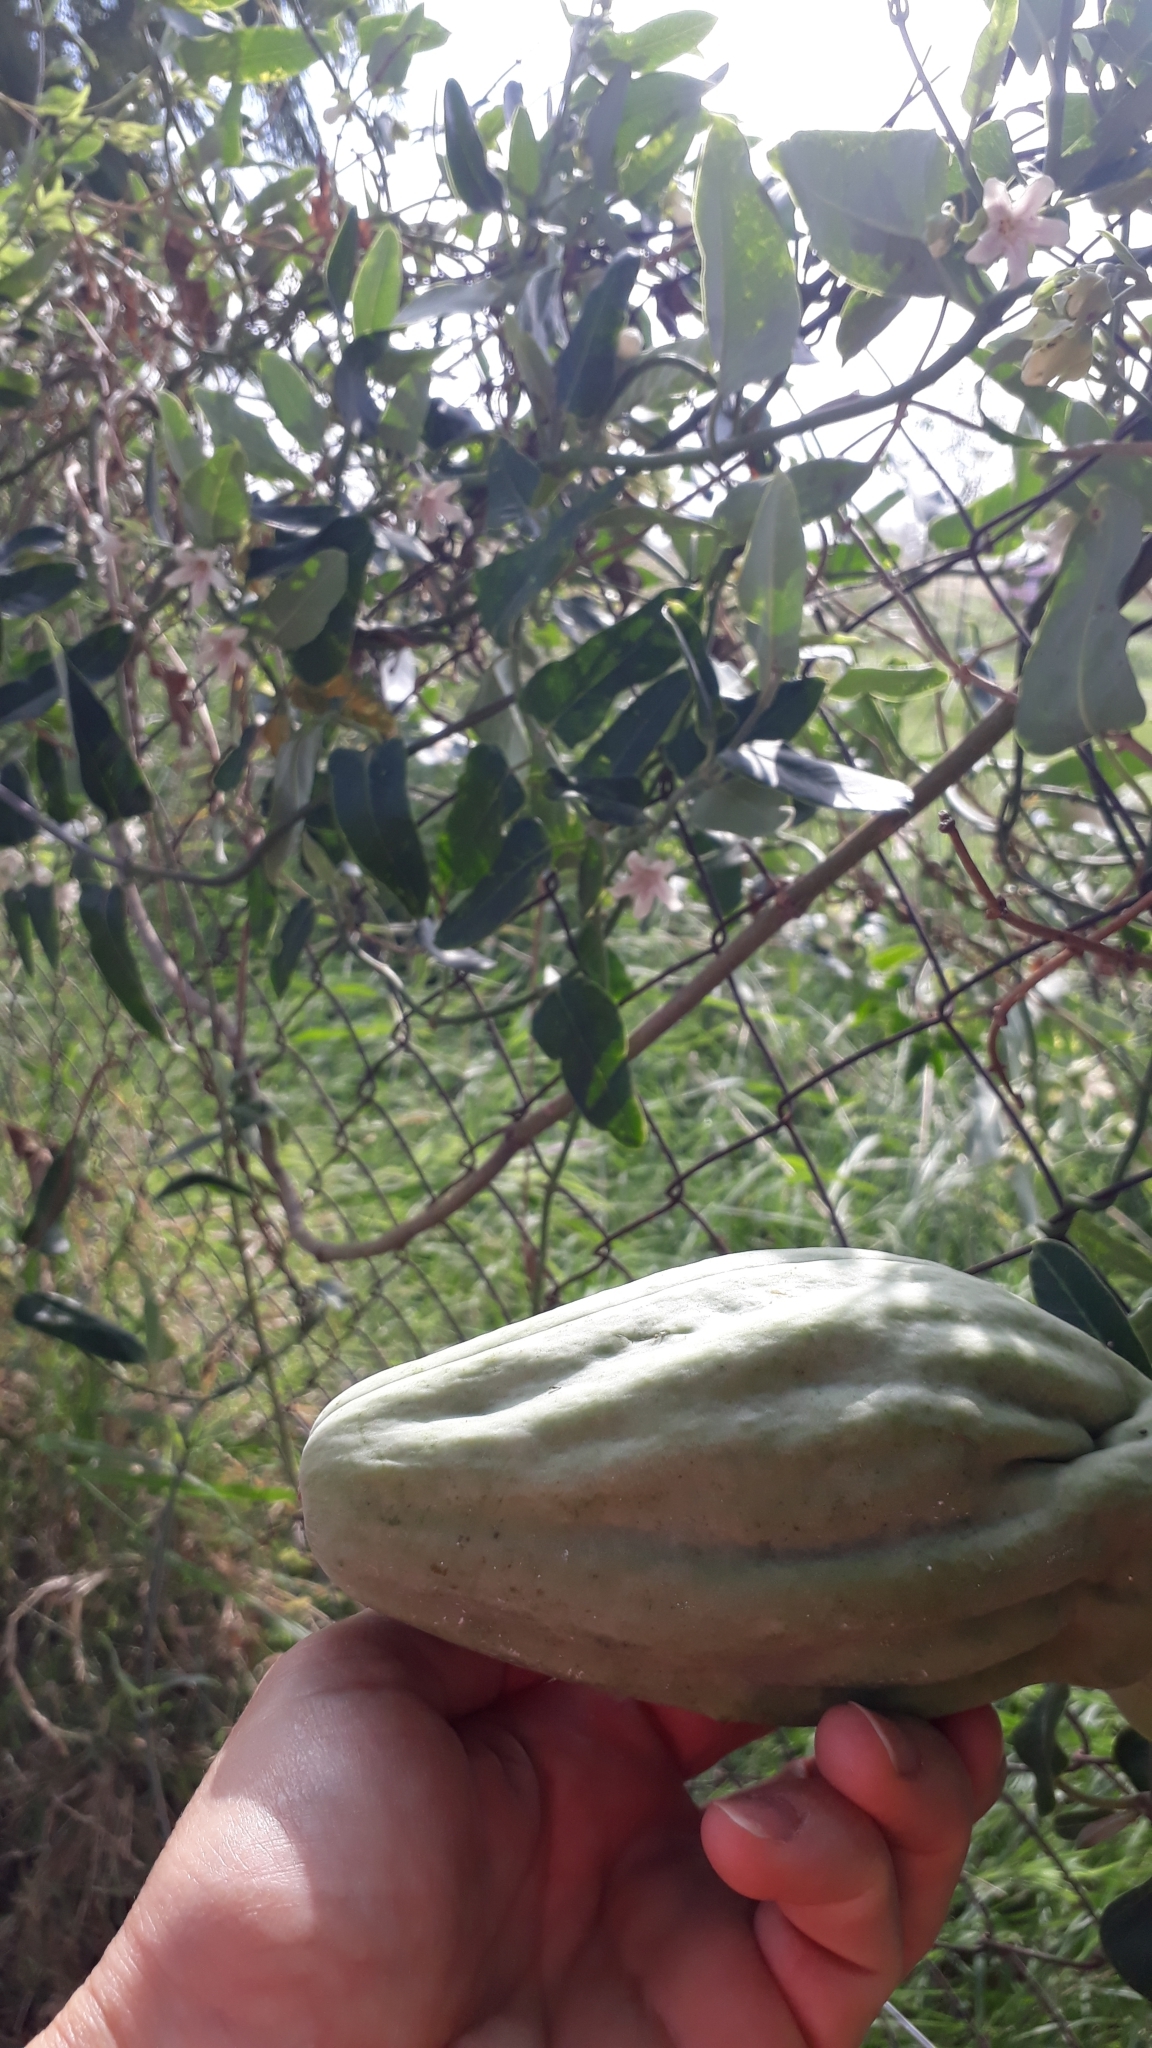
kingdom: Plantae
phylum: Tracheophyta
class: Magnoliopsida
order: Gentianales
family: Apocynaceae
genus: Araujia
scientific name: Araujia sericifera
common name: White bladderflower
